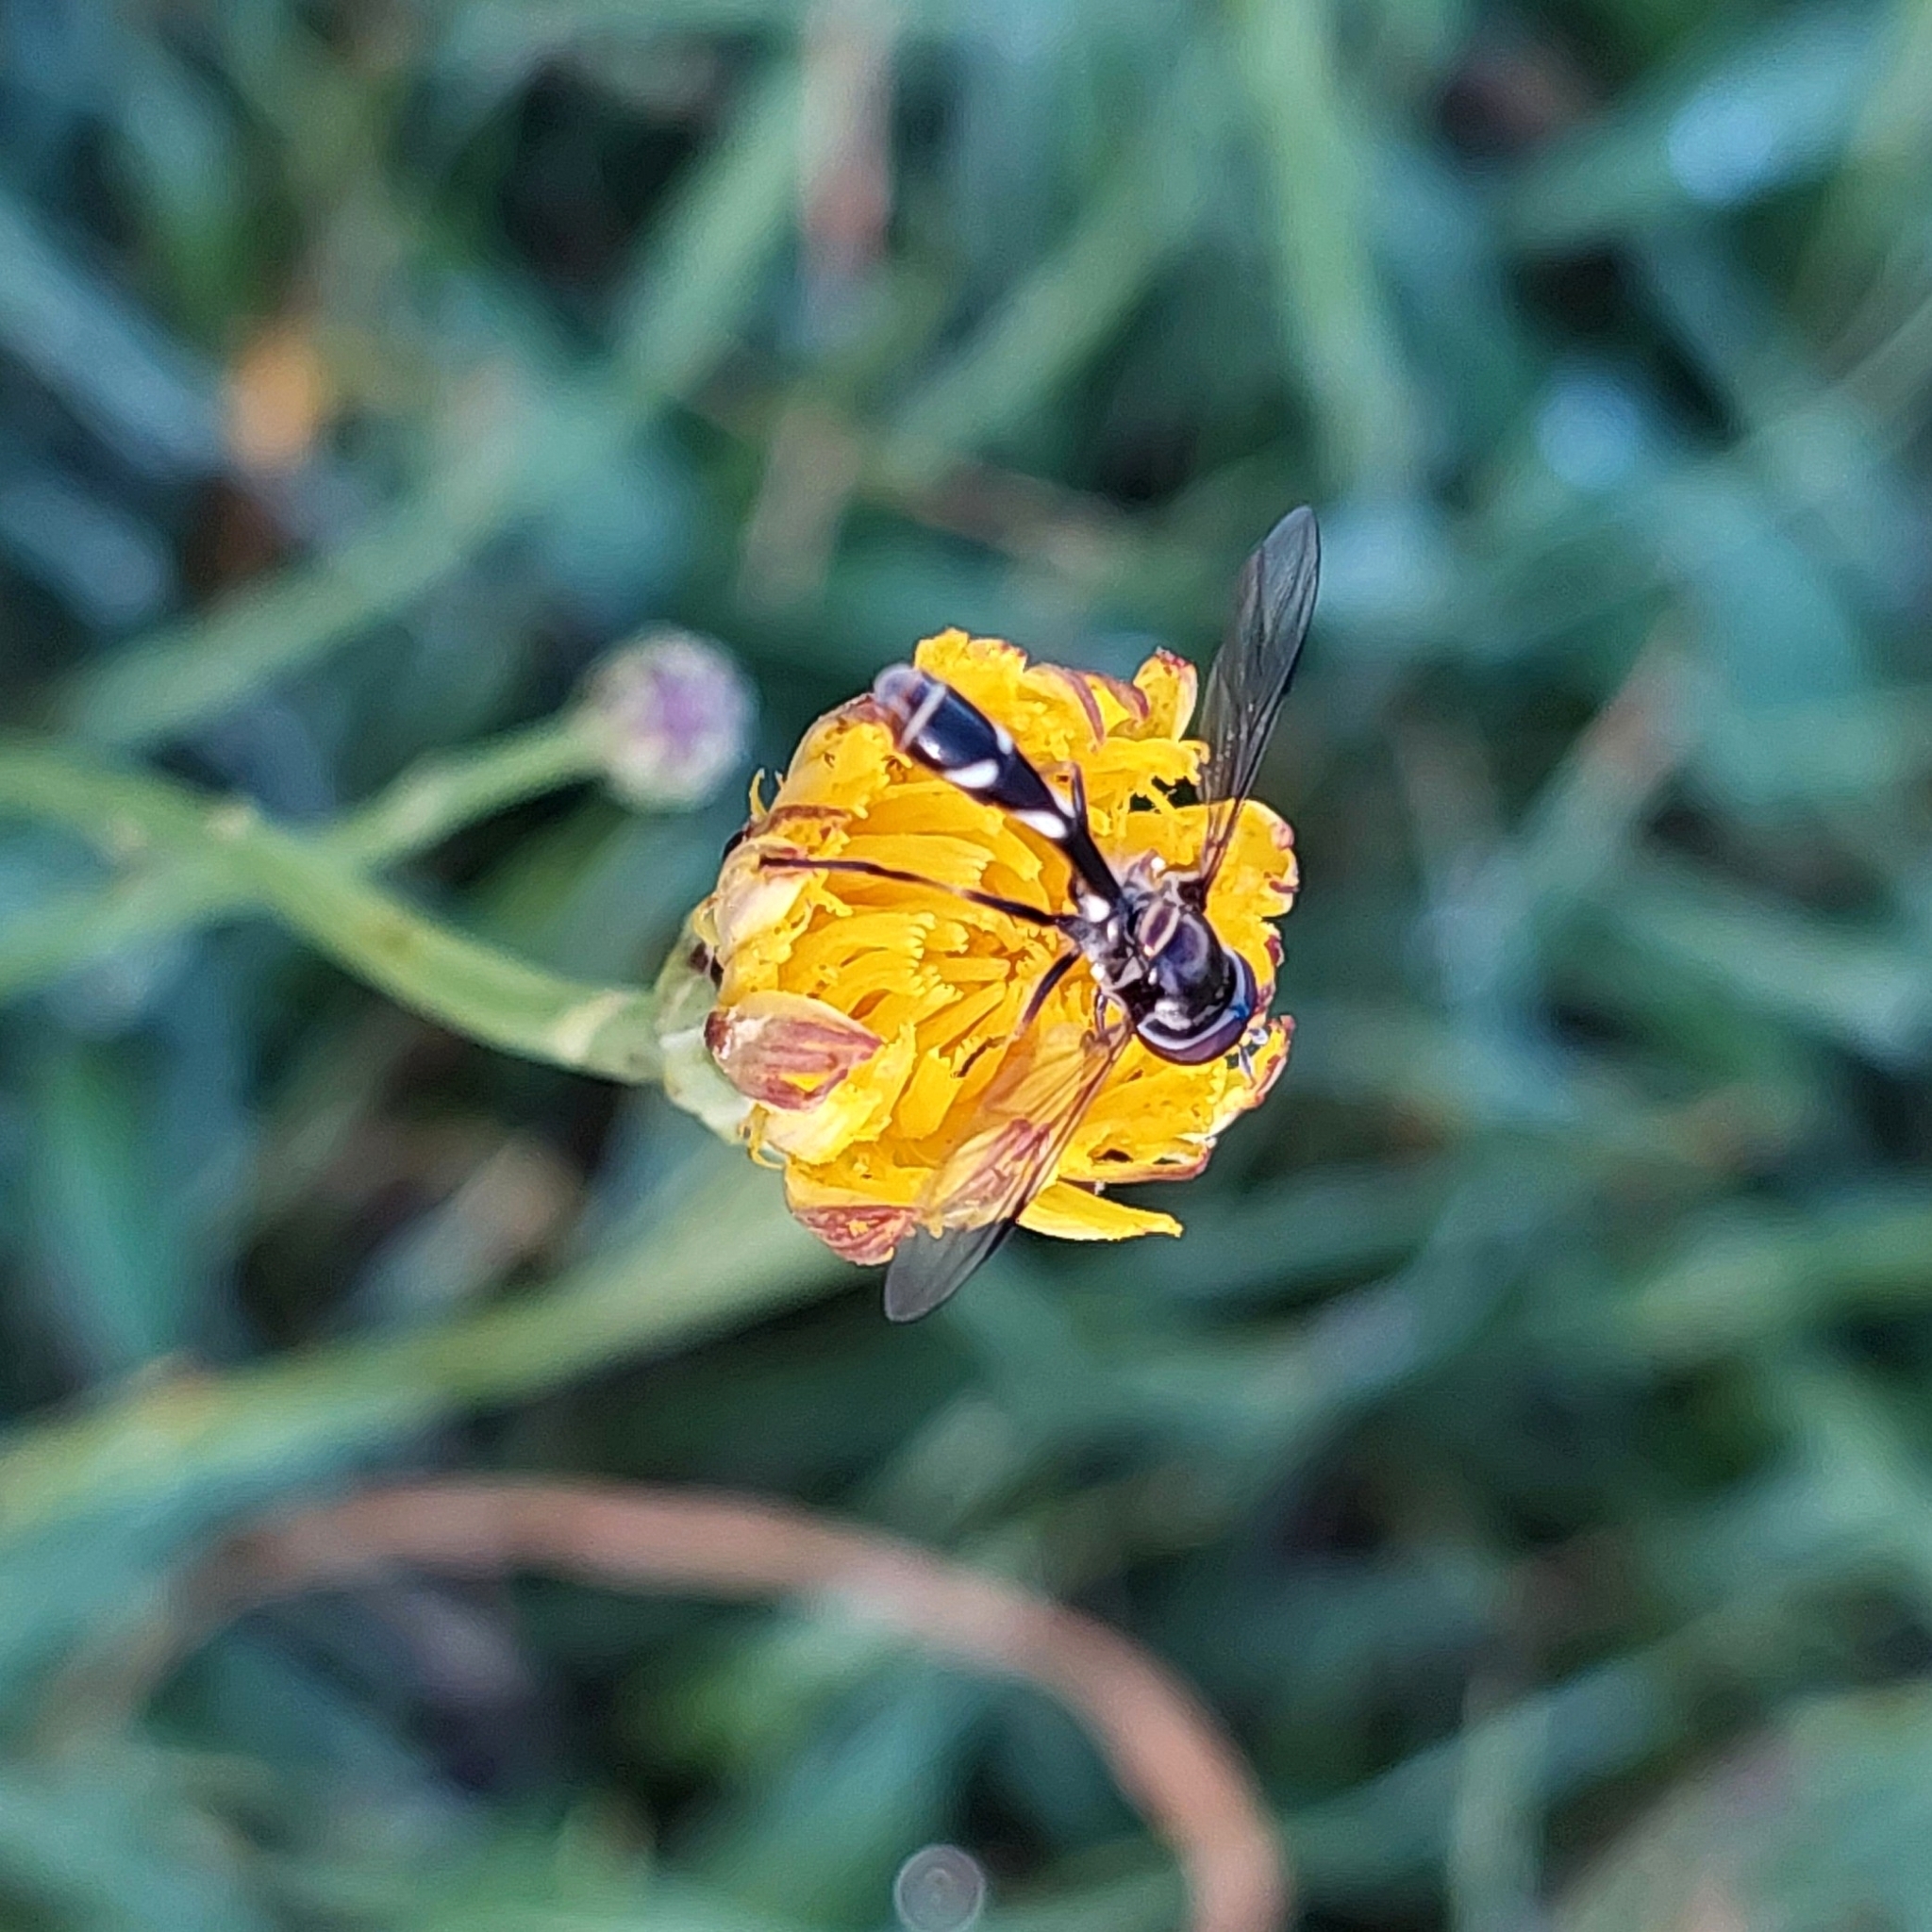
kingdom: Animalia
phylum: Arthropoda
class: Insecta
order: Diptera
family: Syrphidae
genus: Dioprosopa
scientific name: Dioprosopa clavatus
